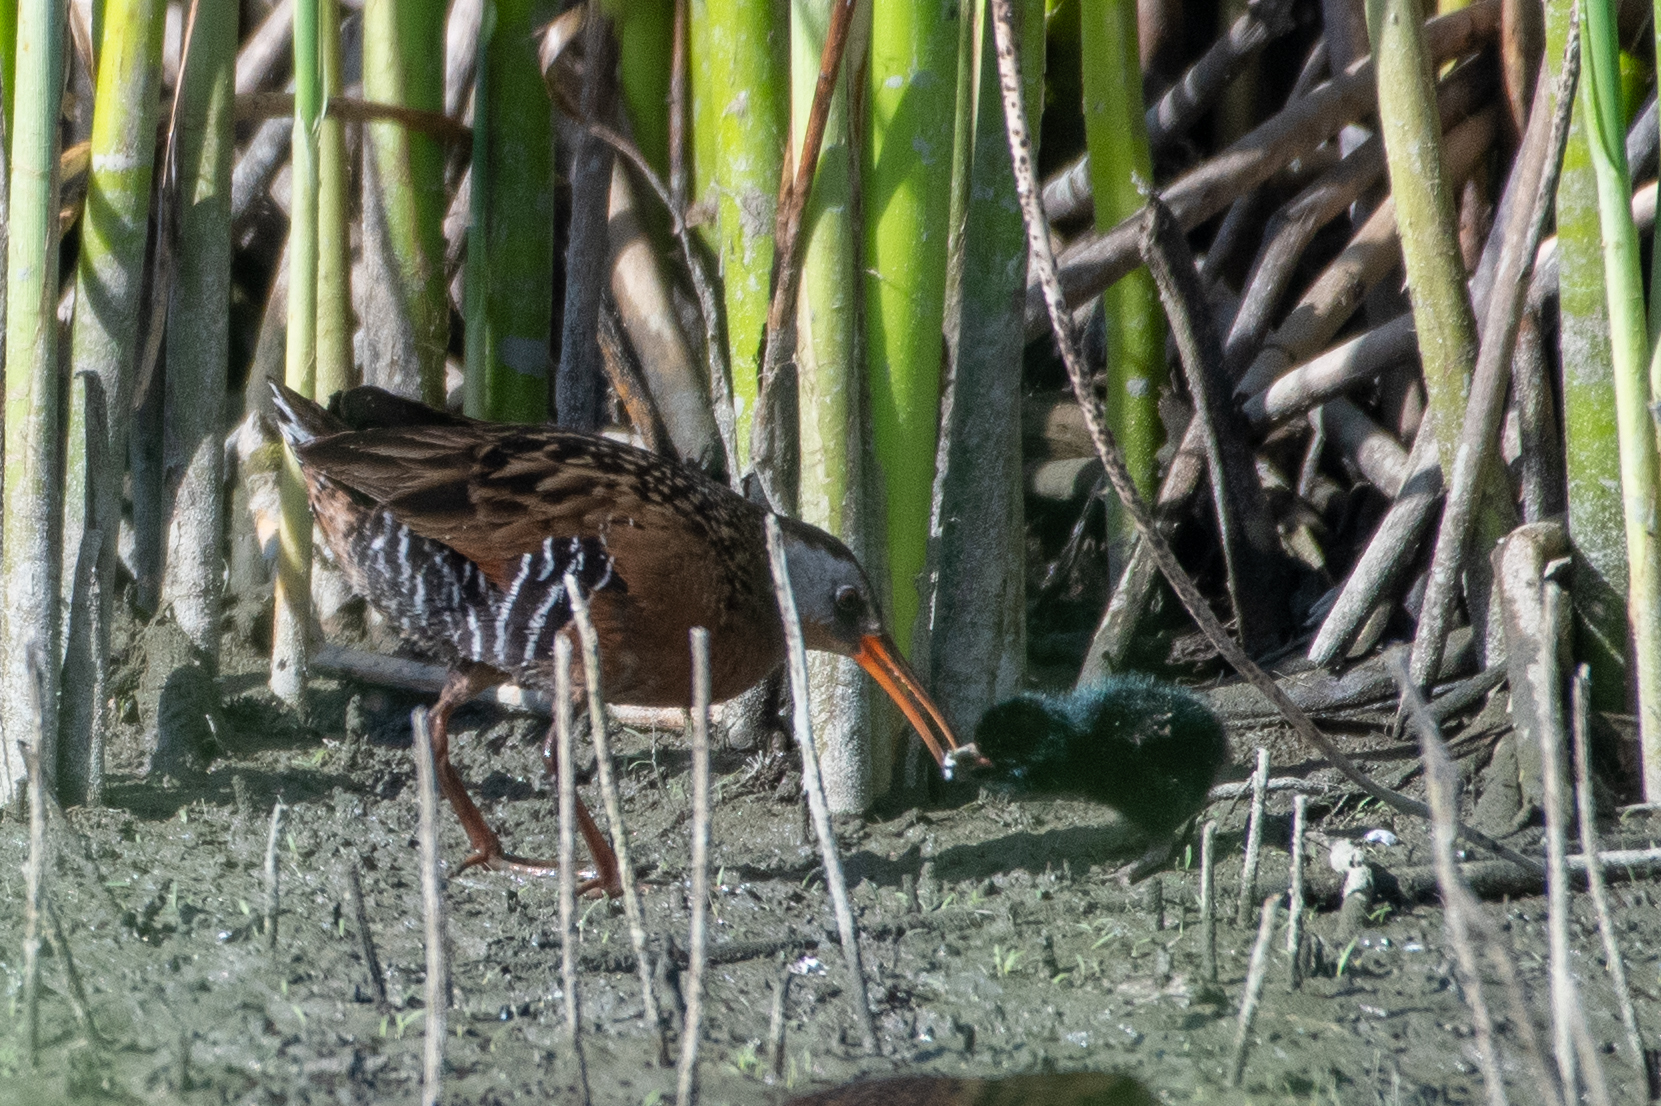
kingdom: Animalia
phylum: Chordata
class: Aves
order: Gruiformes
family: Rallidae
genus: Rallus
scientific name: Rallus limicola
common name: Virginia rail
